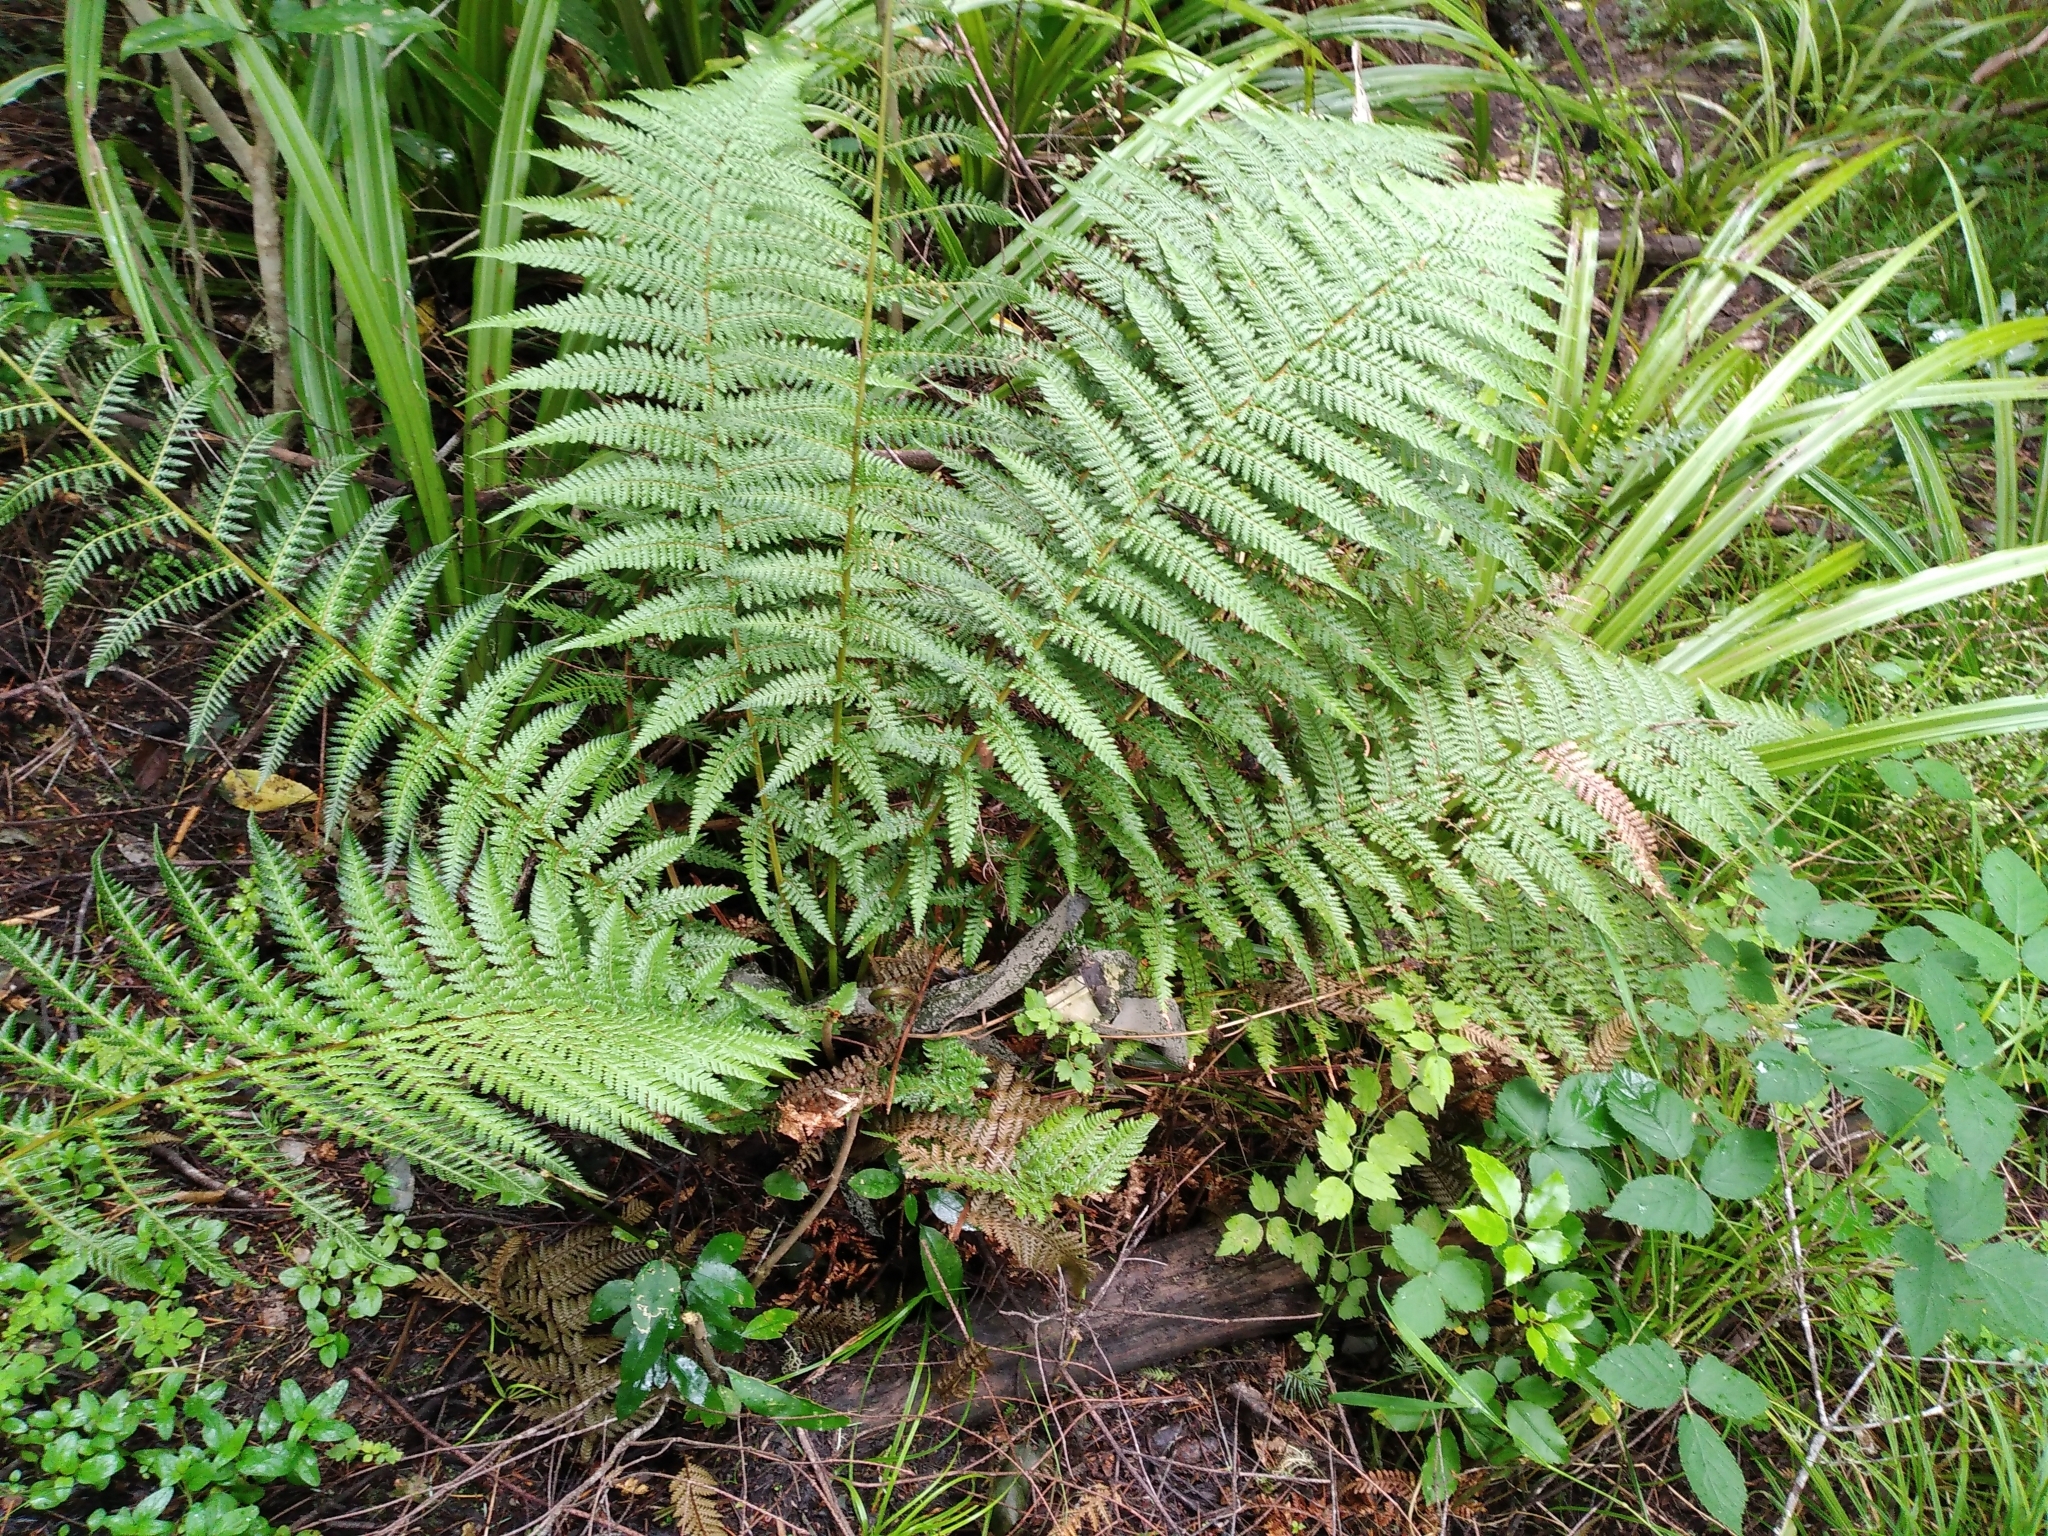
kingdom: Plantae
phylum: Tracheophyta
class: Polypodiopsida
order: Cyatheales
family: Dicksoniaceae
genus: Dicksonia
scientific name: Dicksonia fibrosa
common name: Golden tree fern
